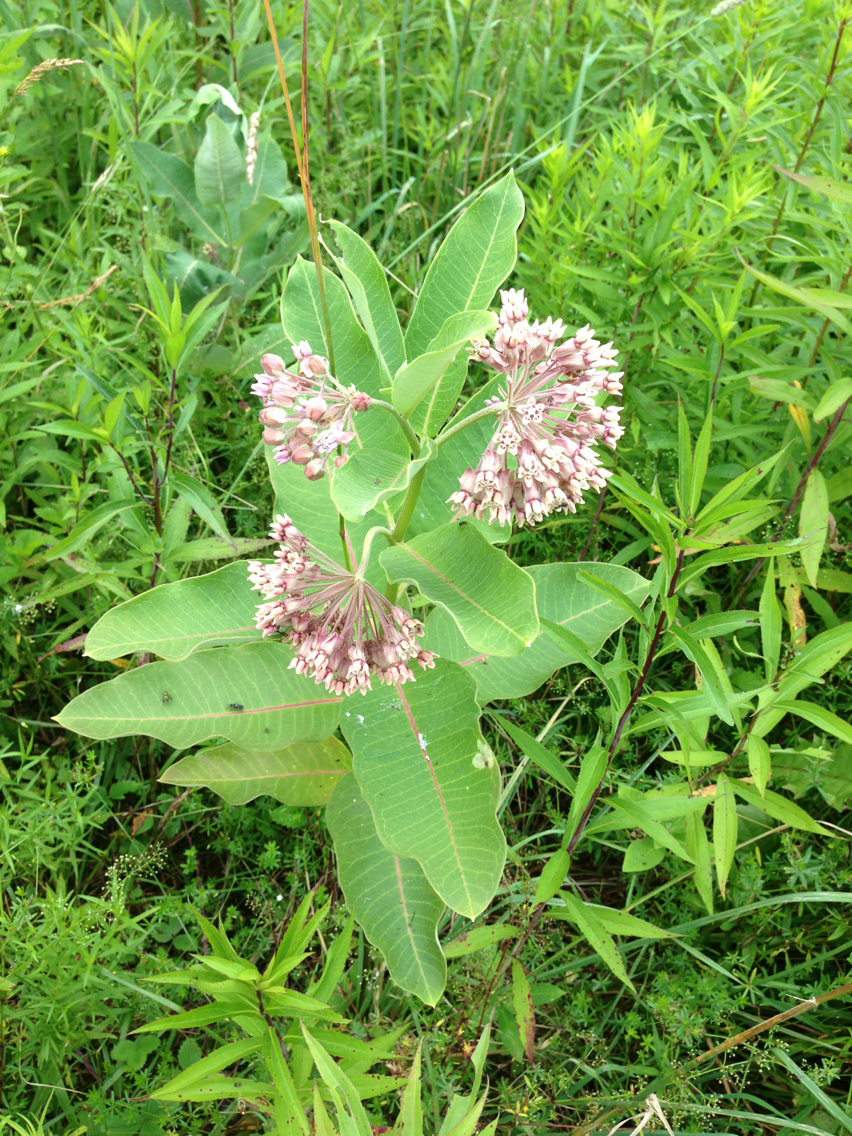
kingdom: Plantae
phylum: Tracheophyta
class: Magnoliopsida
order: Gentianales
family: Apocynaceae
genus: Asclepias
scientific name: Asclepias syriaca
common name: Common milkweed
